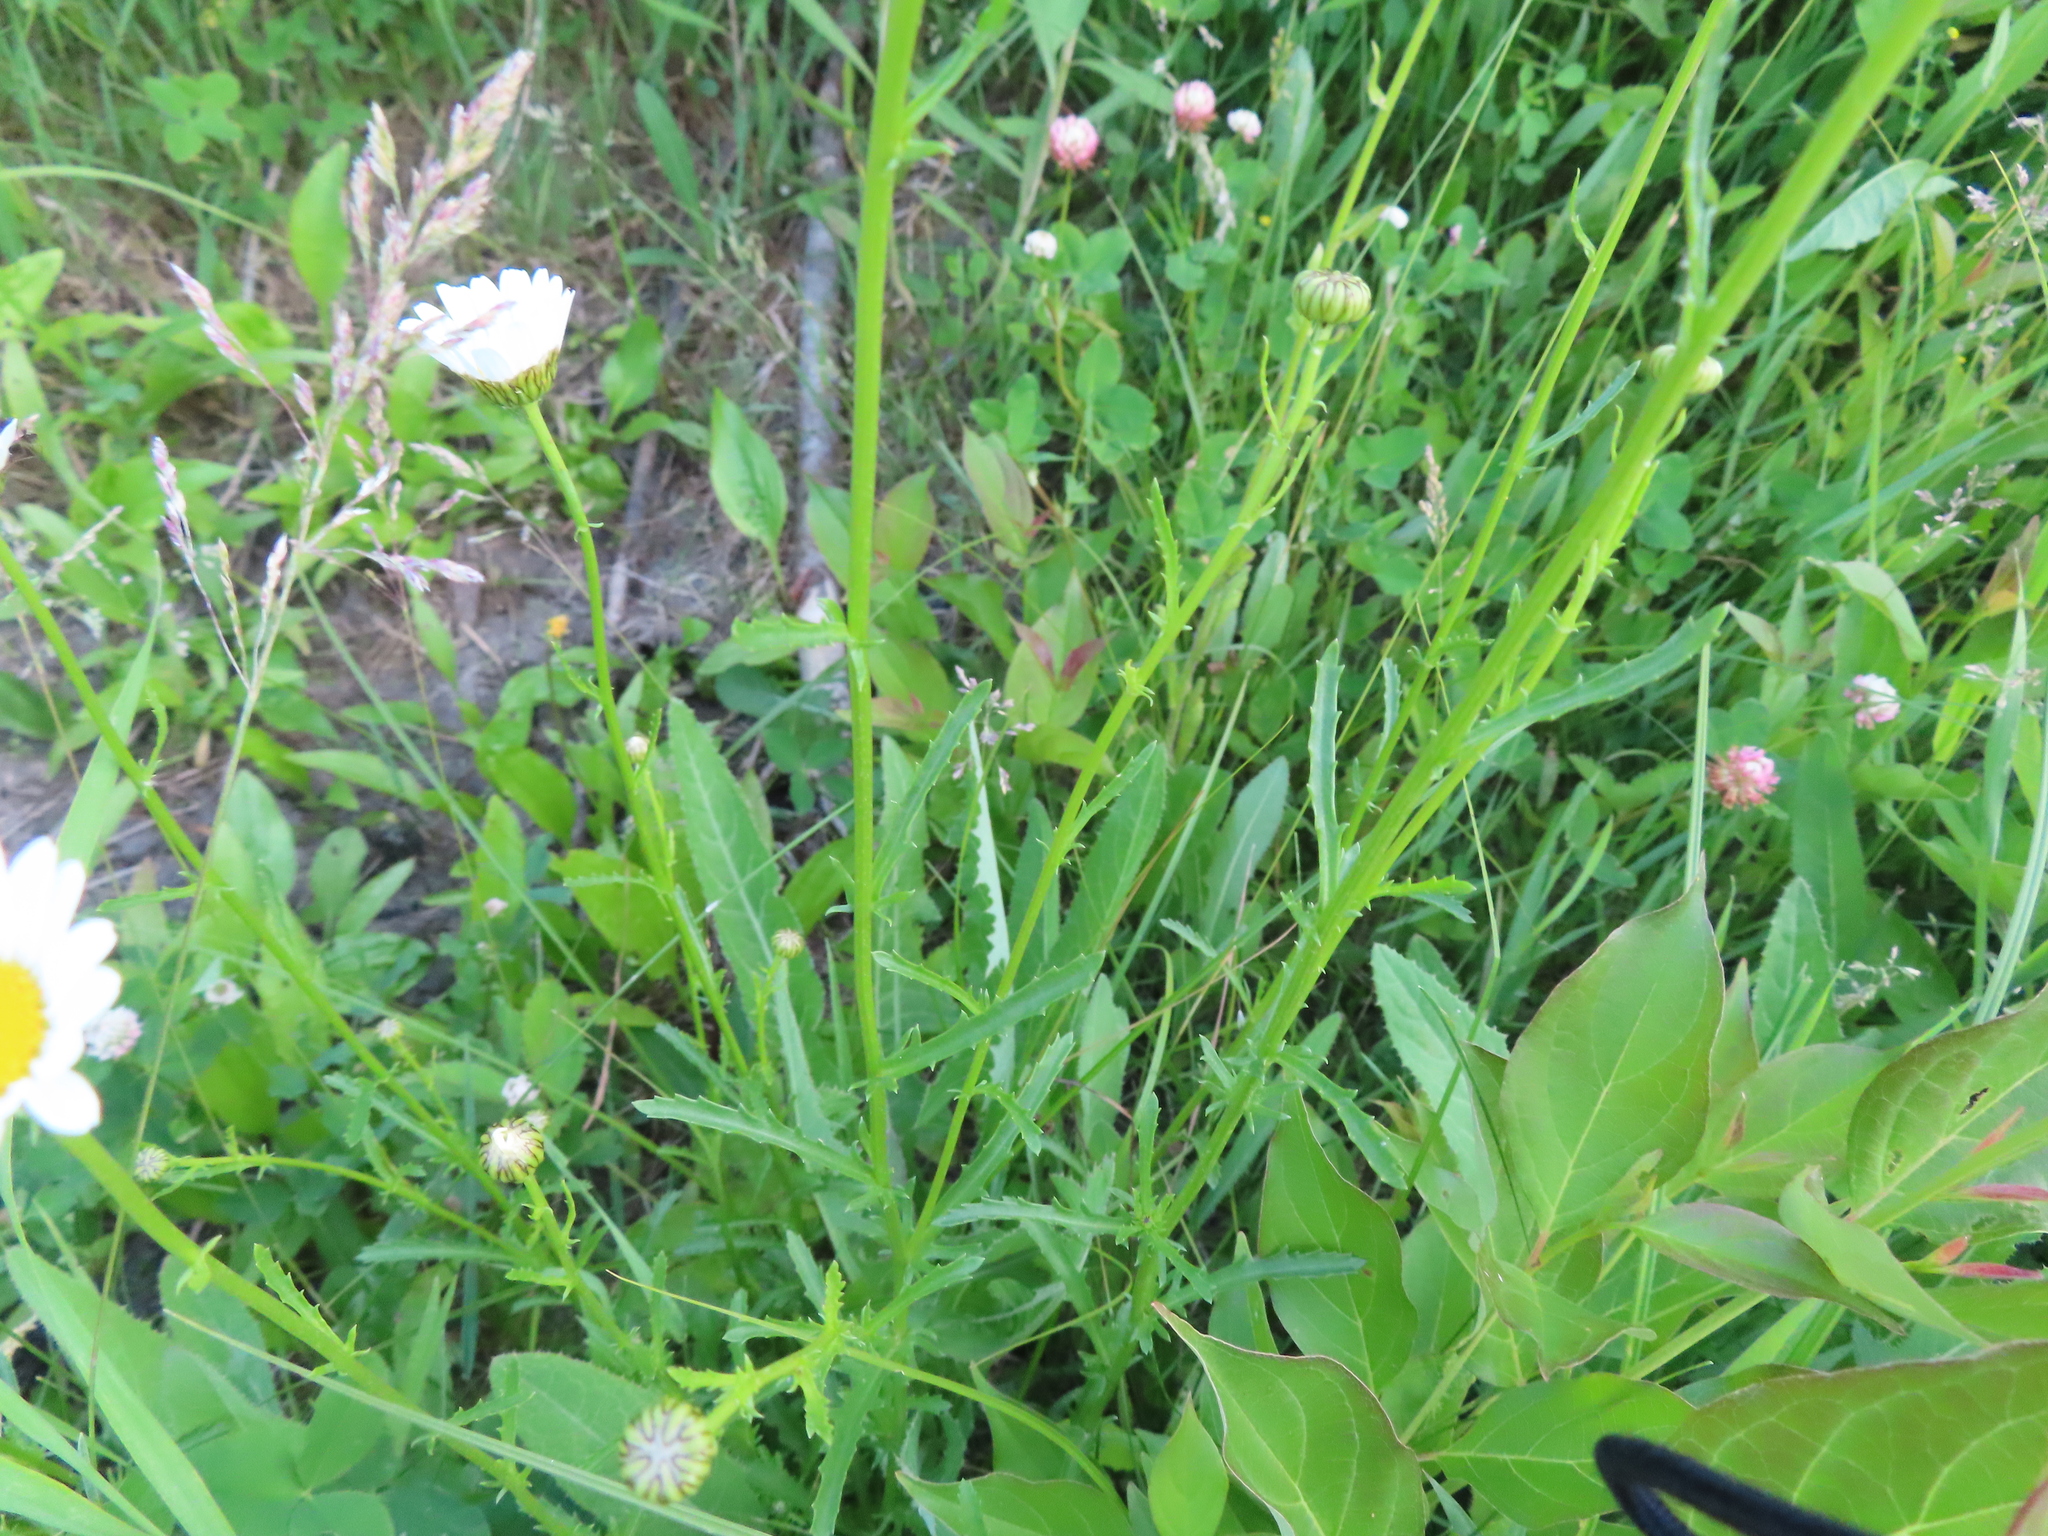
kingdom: Plantae
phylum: Tracheophyta
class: Magnoliopsida
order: Asterales
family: Asteraceae
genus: Leucanthemum
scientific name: Leucanthemum vulgare
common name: Oxeye daisy
